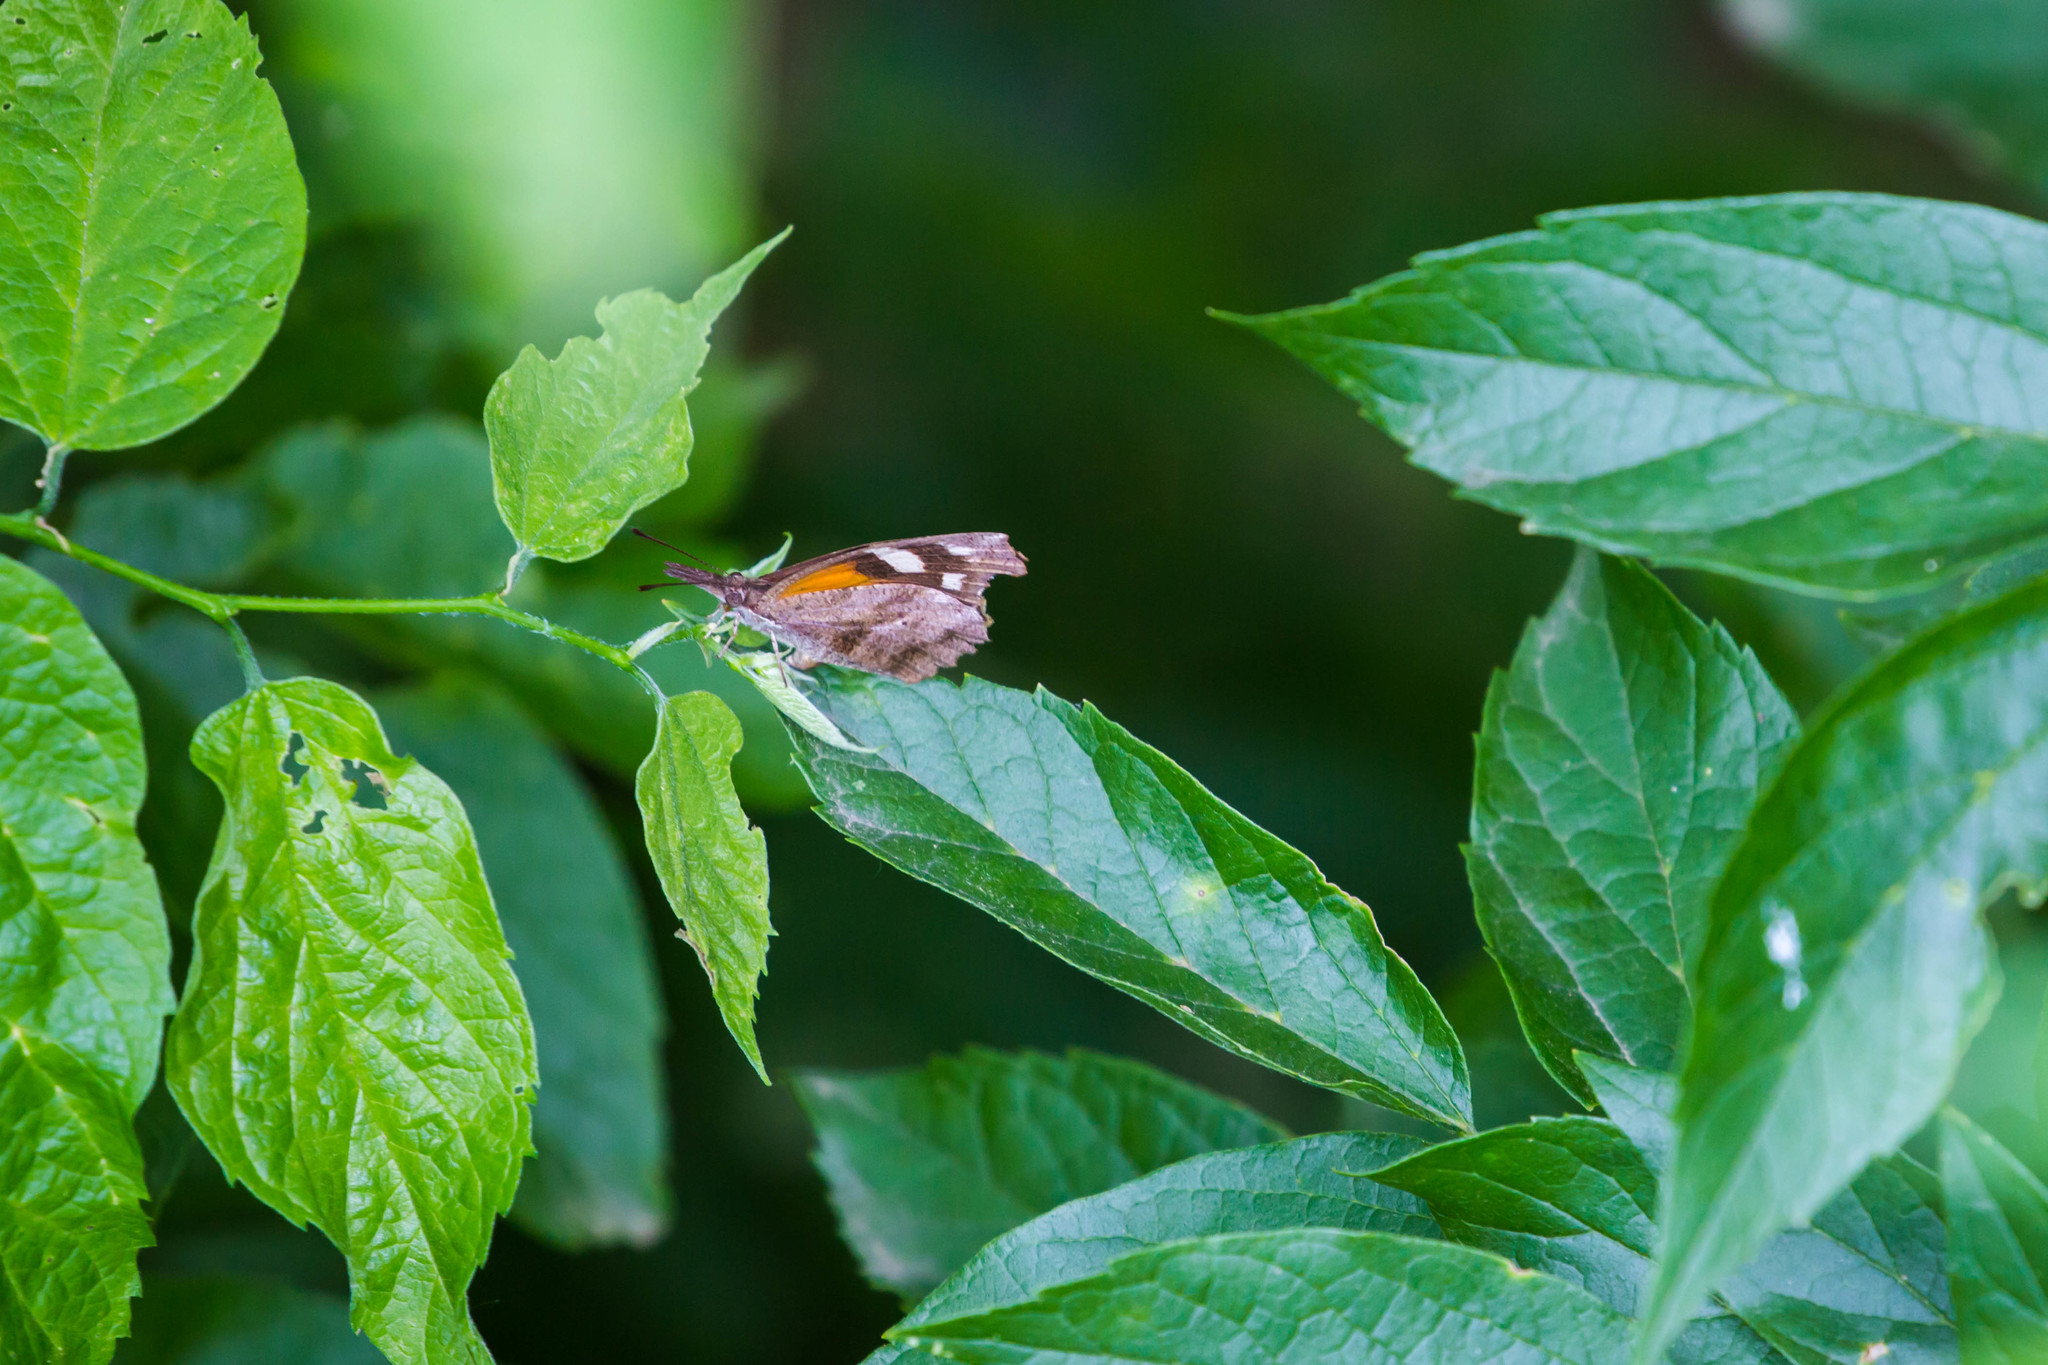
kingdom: Animalia
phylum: Arthropoda
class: Insecta
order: Lepidoptera
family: Nymphalidae
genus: Libytheana
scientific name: Libytheana carinenta
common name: American snout
